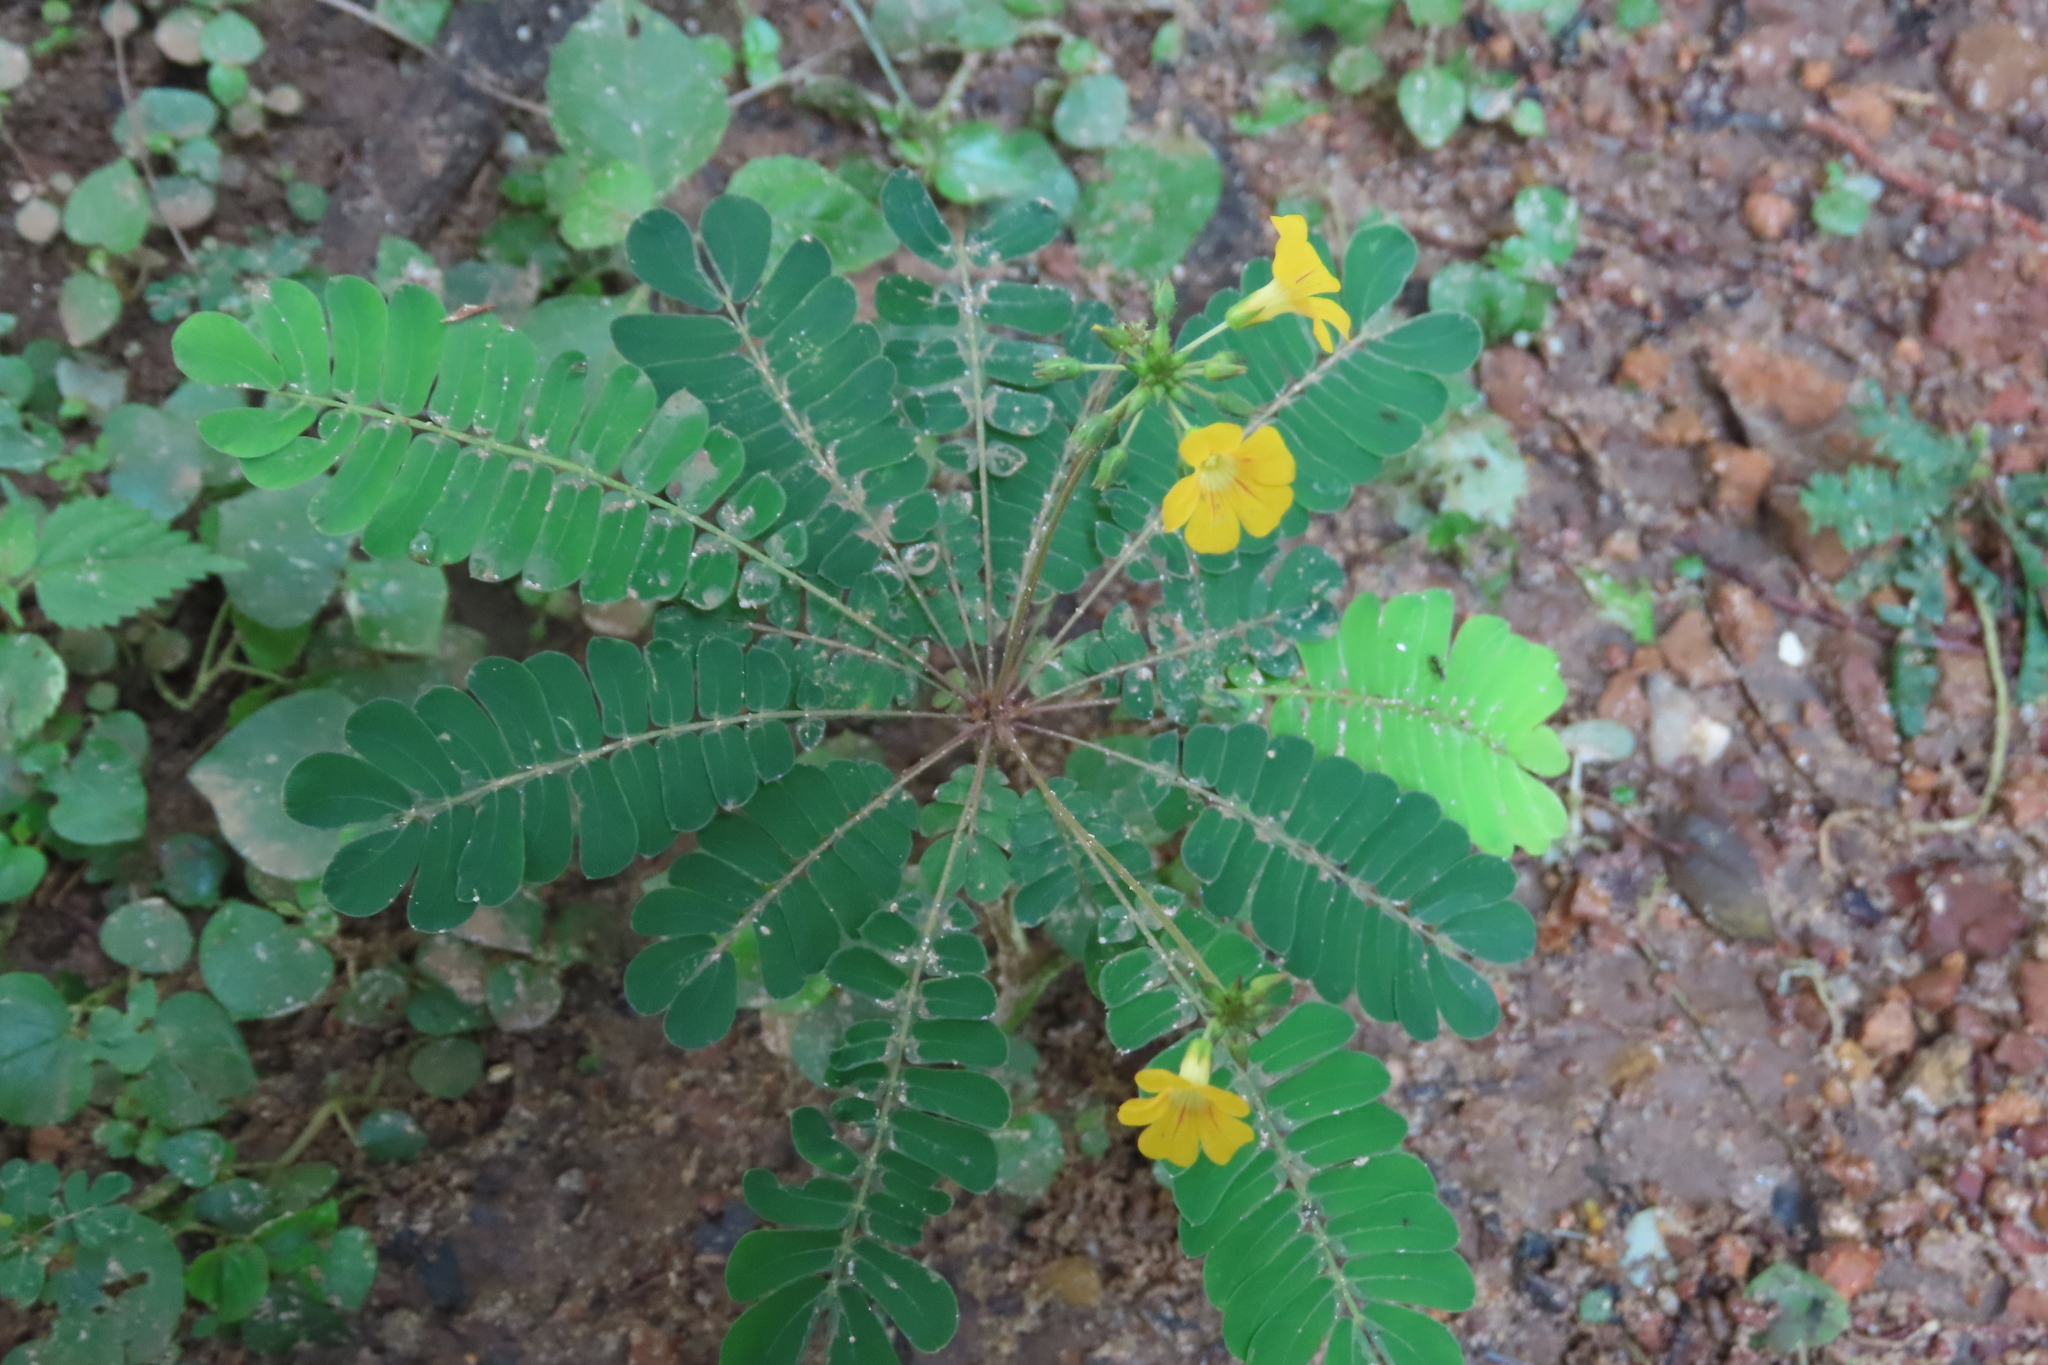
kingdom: Plantae
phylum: Tracheophyta
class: Magnoliopsida
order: Oxalidales
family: Oxalidaceae
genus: Biophytum
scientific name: Biophytum sensitivum
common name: Lifeplant
